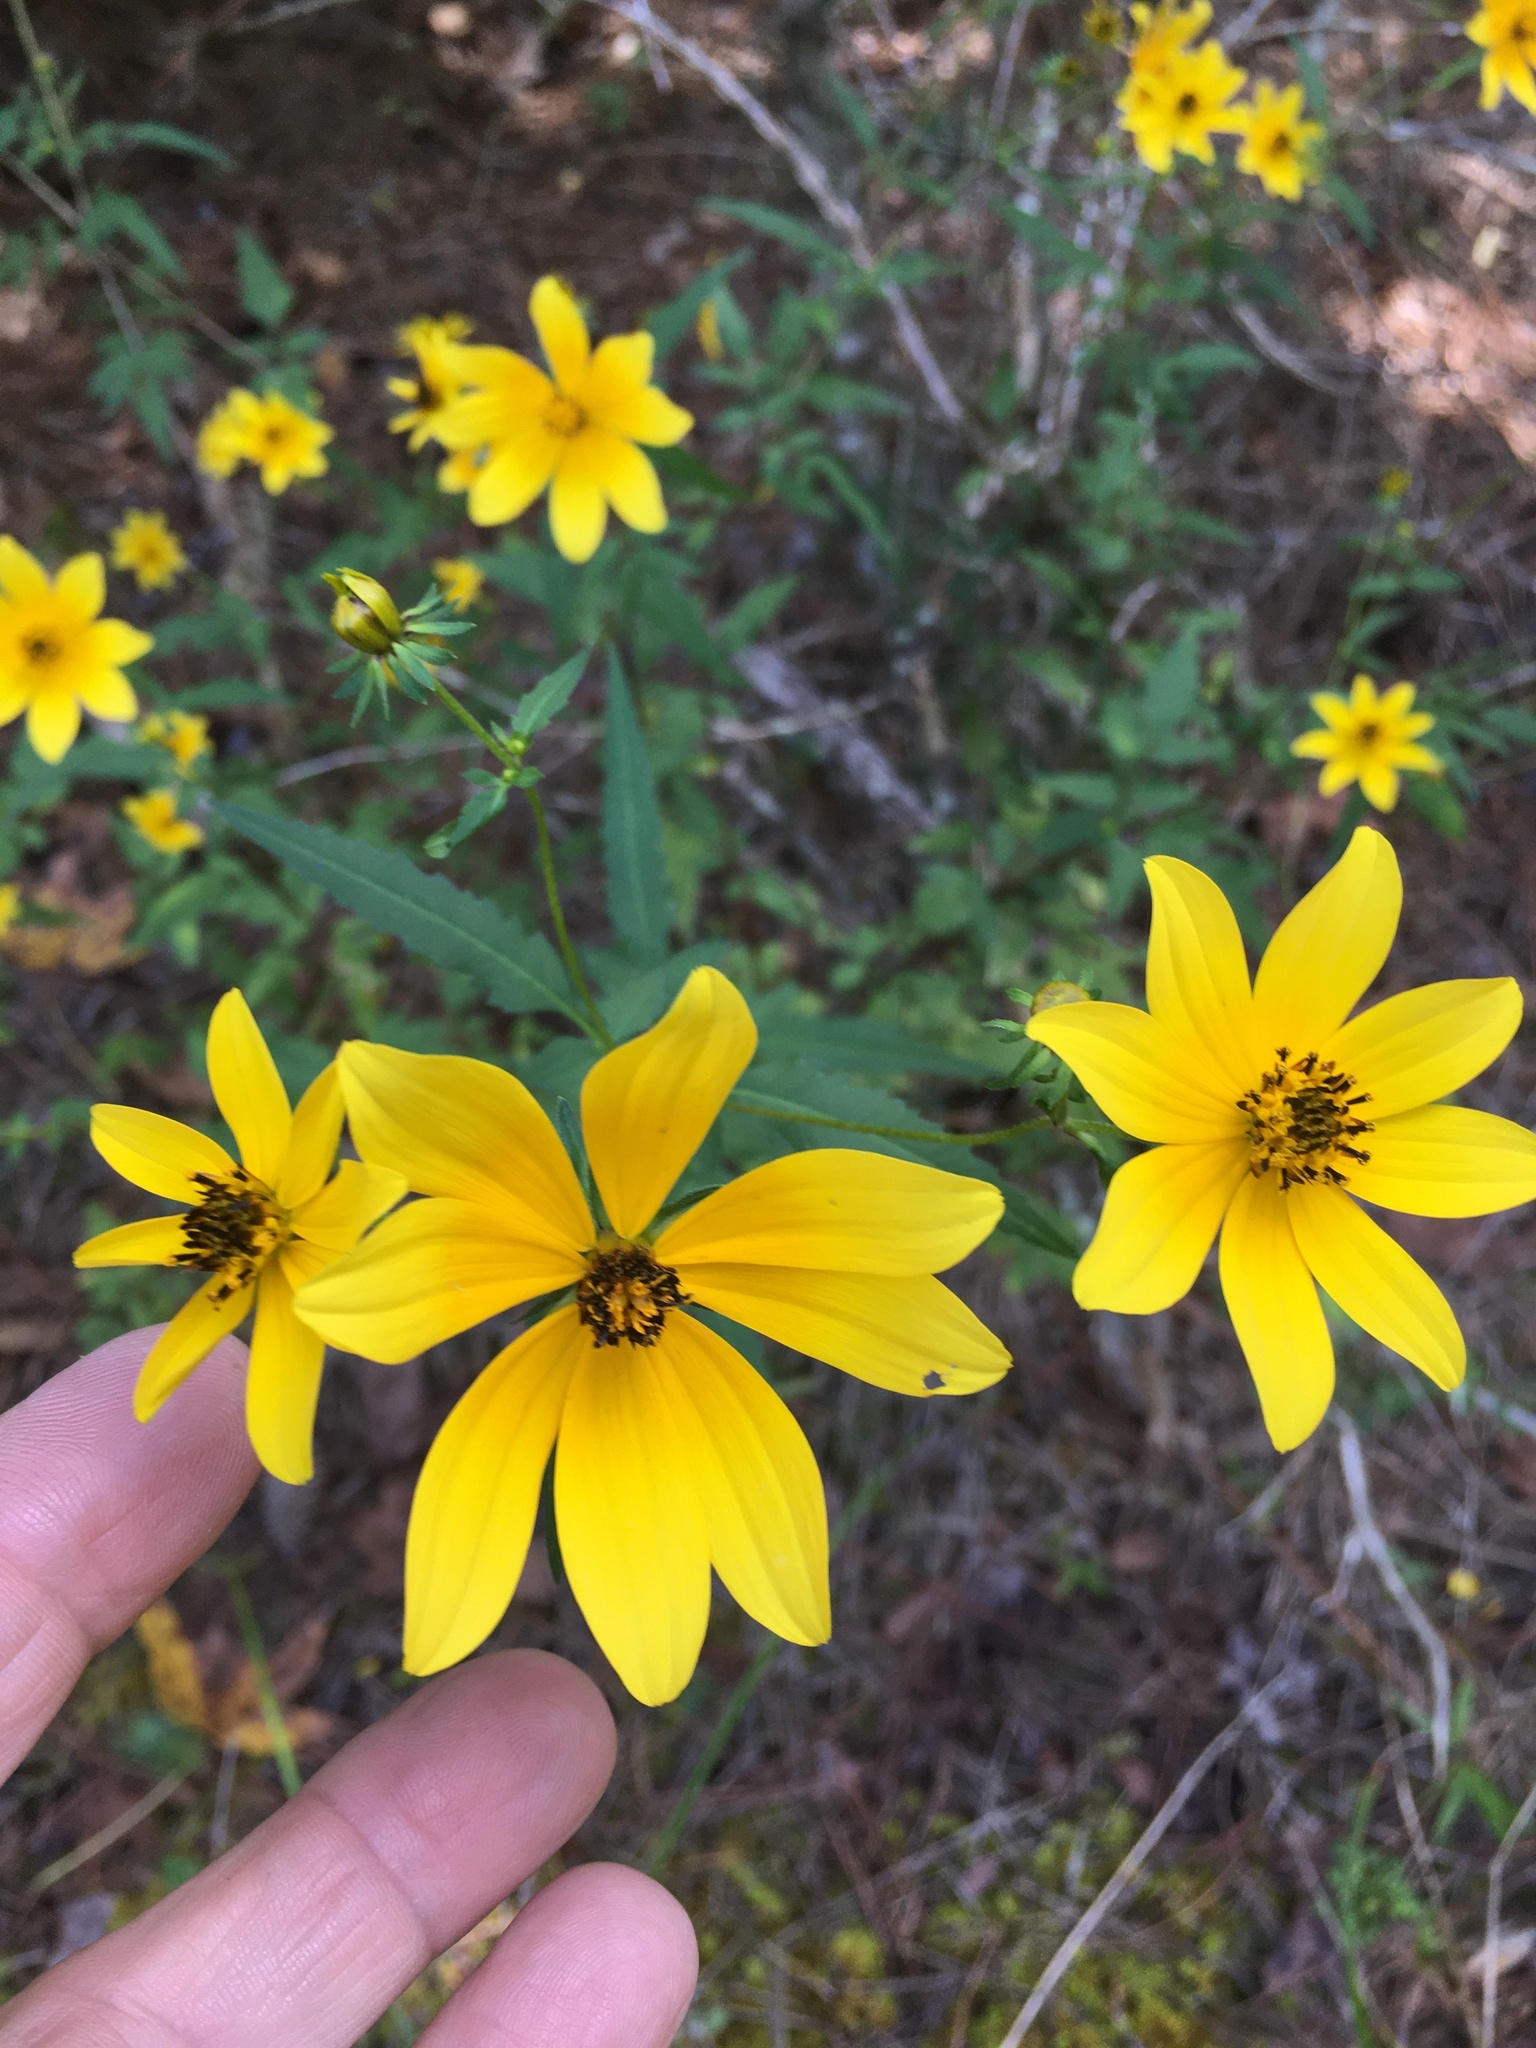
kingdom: Plantae
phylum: Tracheophyta
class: Magnoliopsida
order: Asterales
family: Asteraceae
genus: Bidens
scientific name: Bidens aristosa
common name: Western tickseed
